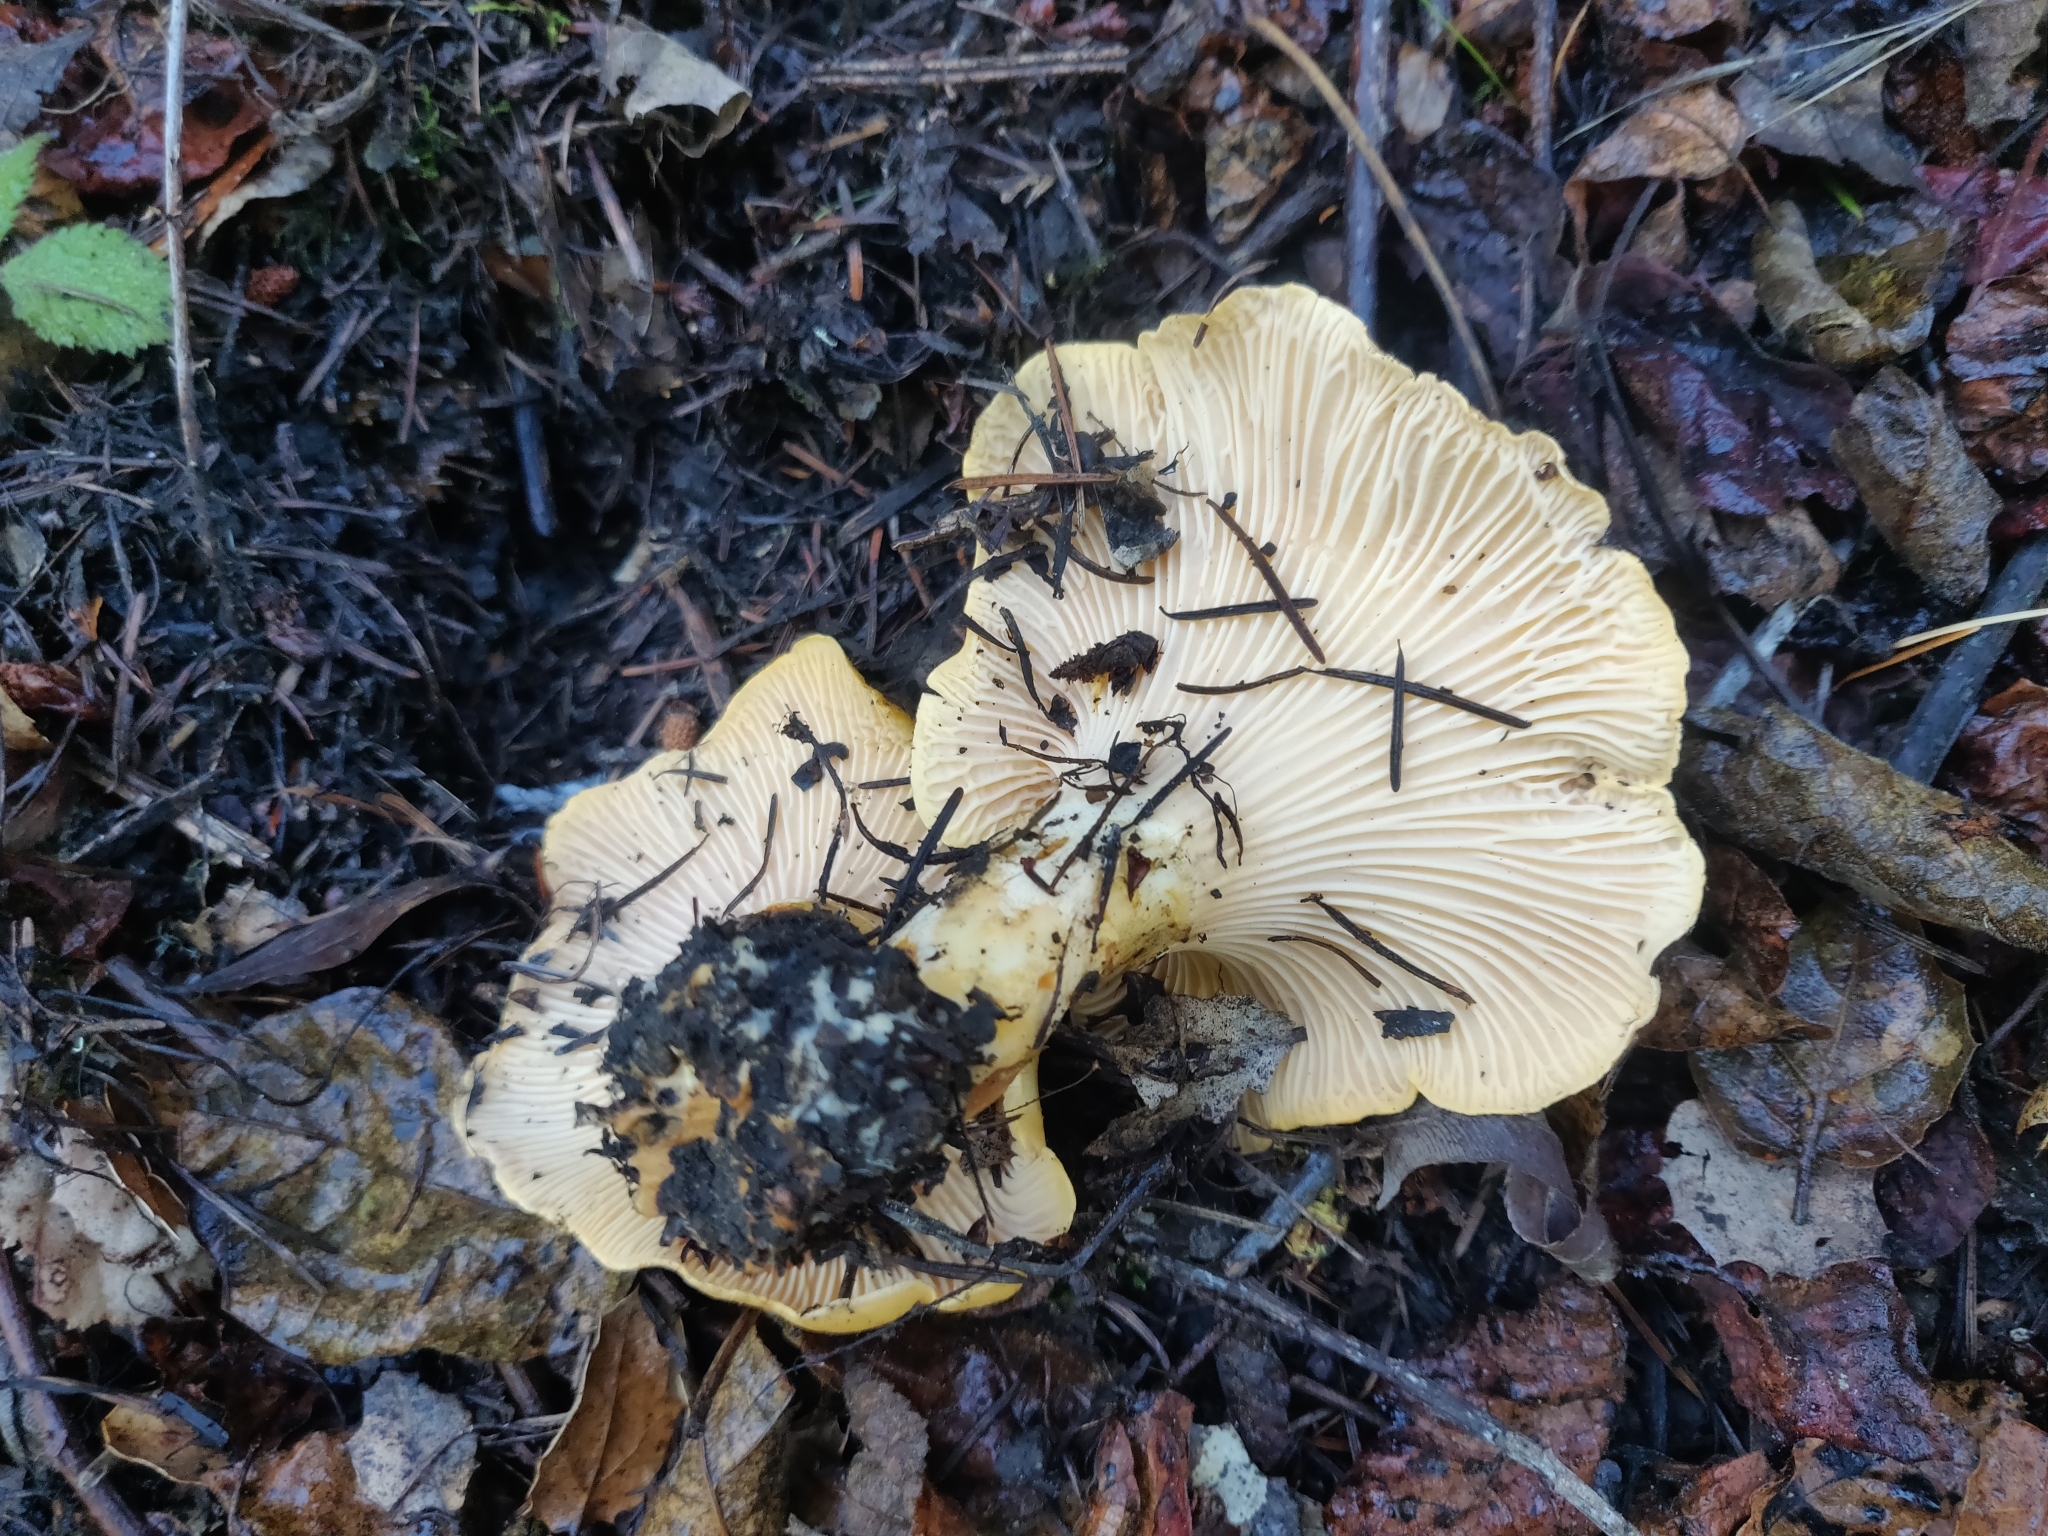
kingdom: Fungi
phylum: Basidiomycota
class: Agaricomycetes
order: Cantharellales
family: Hydnaceae
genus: Cantharellus
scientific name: Cantharellus californicus
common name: California golden chanterelle
